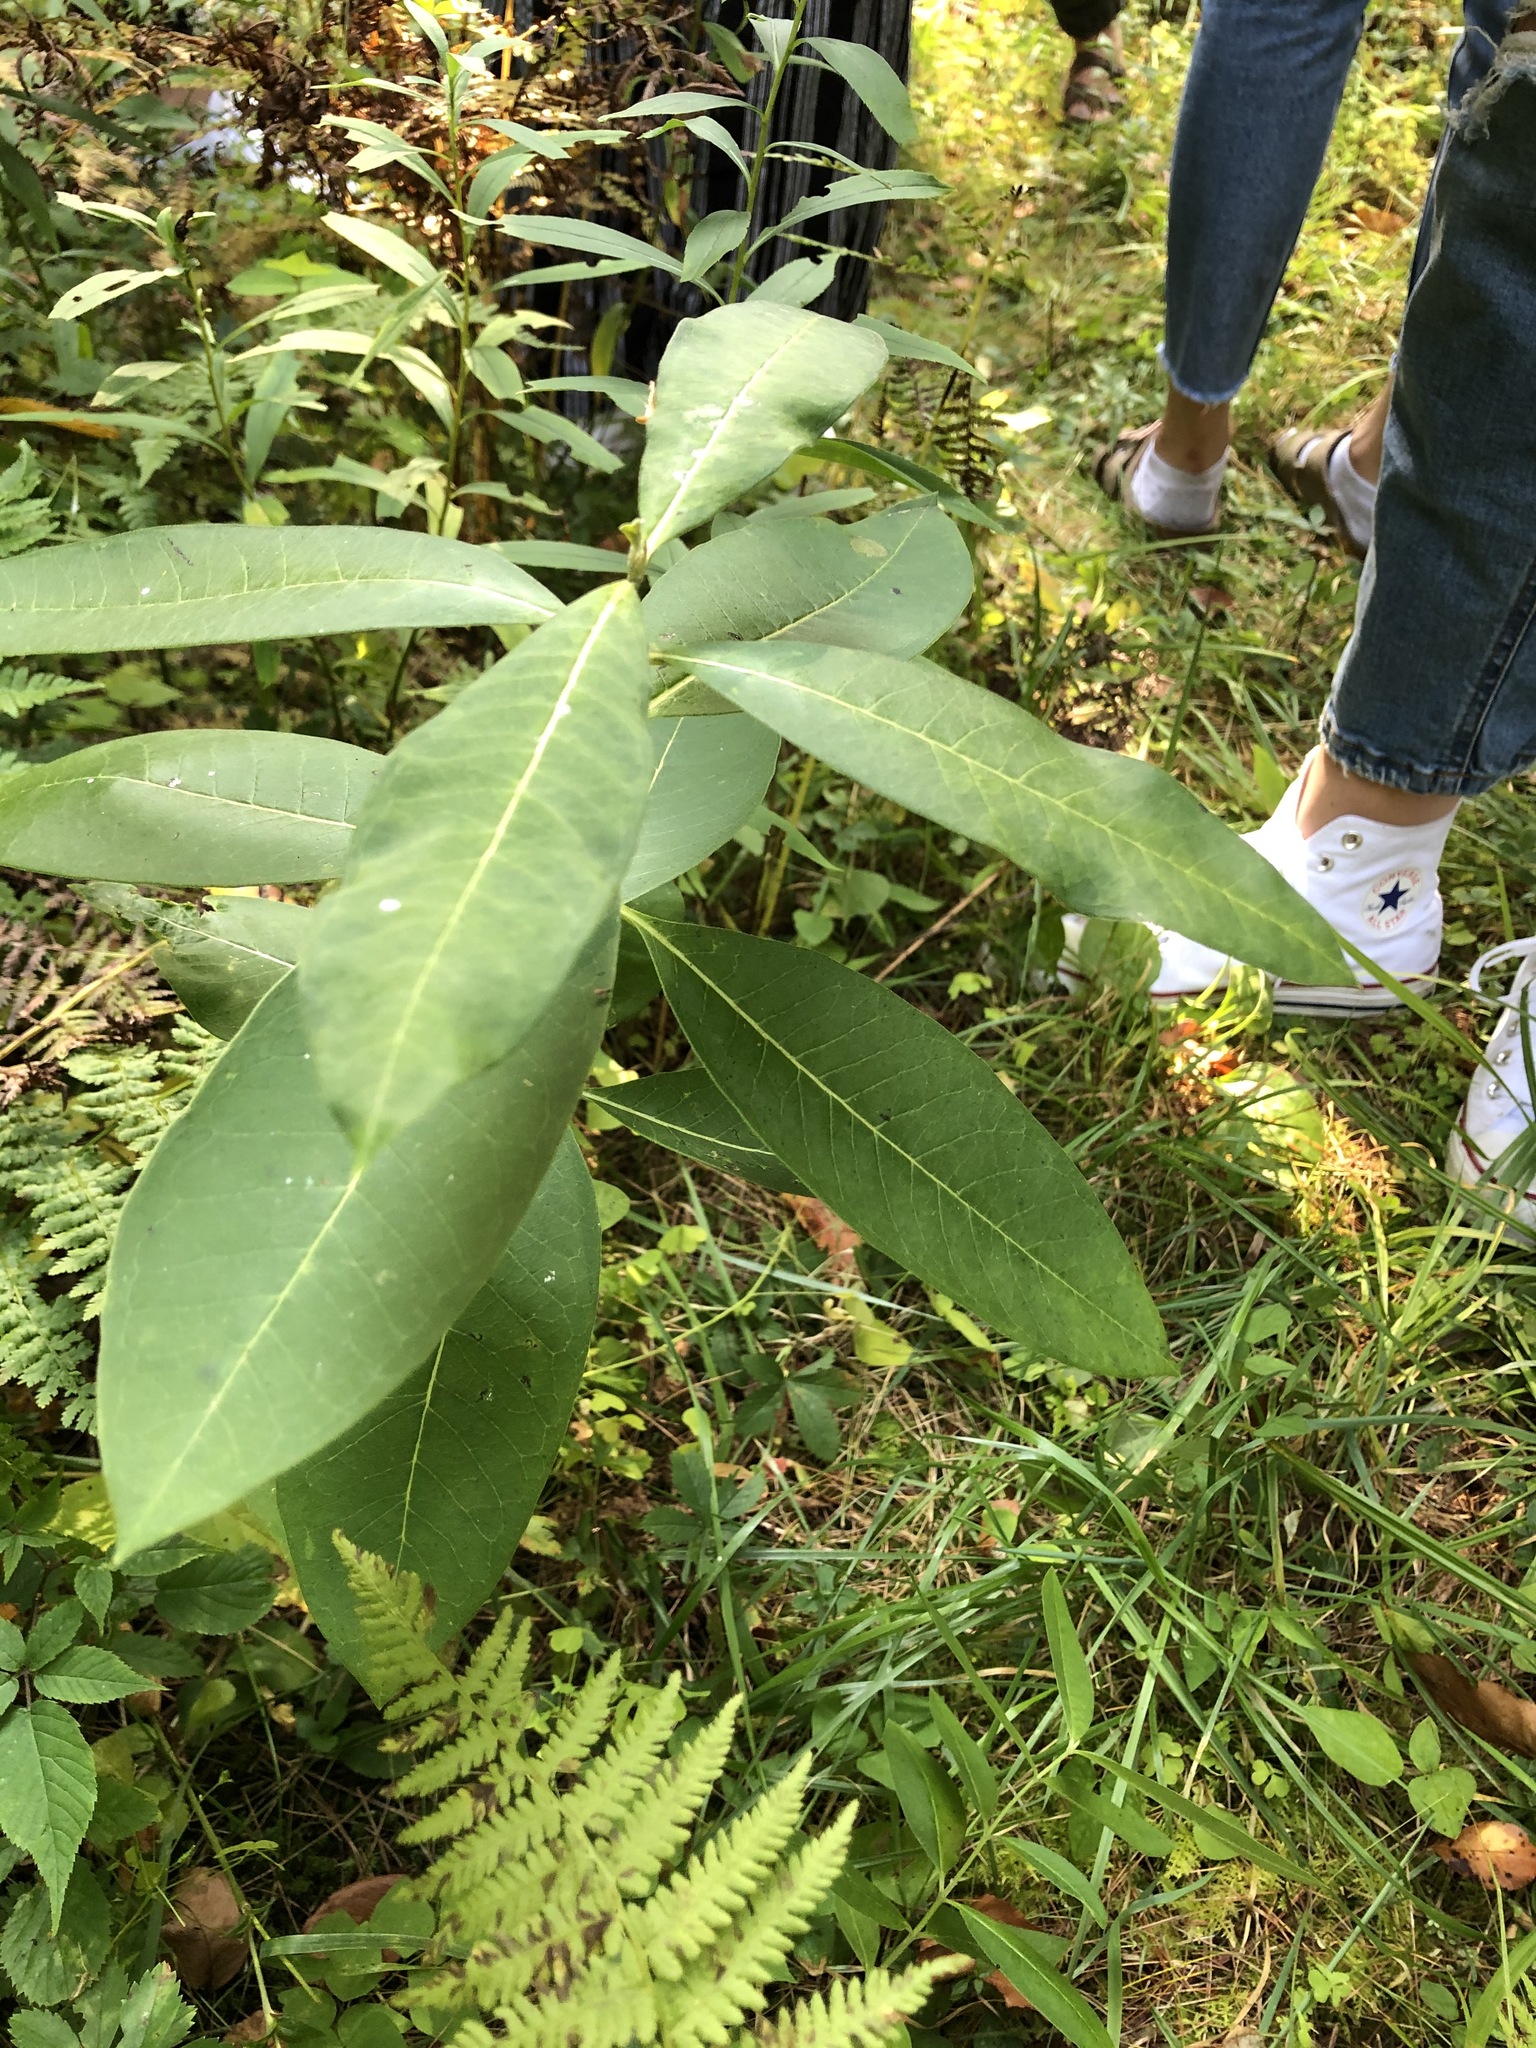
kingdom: Plantae
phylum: Tracheophyta
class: Magnoliopsida
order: Gentianales
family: Apocynaceae
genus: Asclepias
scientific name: Asclepias syriaca
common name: Common milkweed
